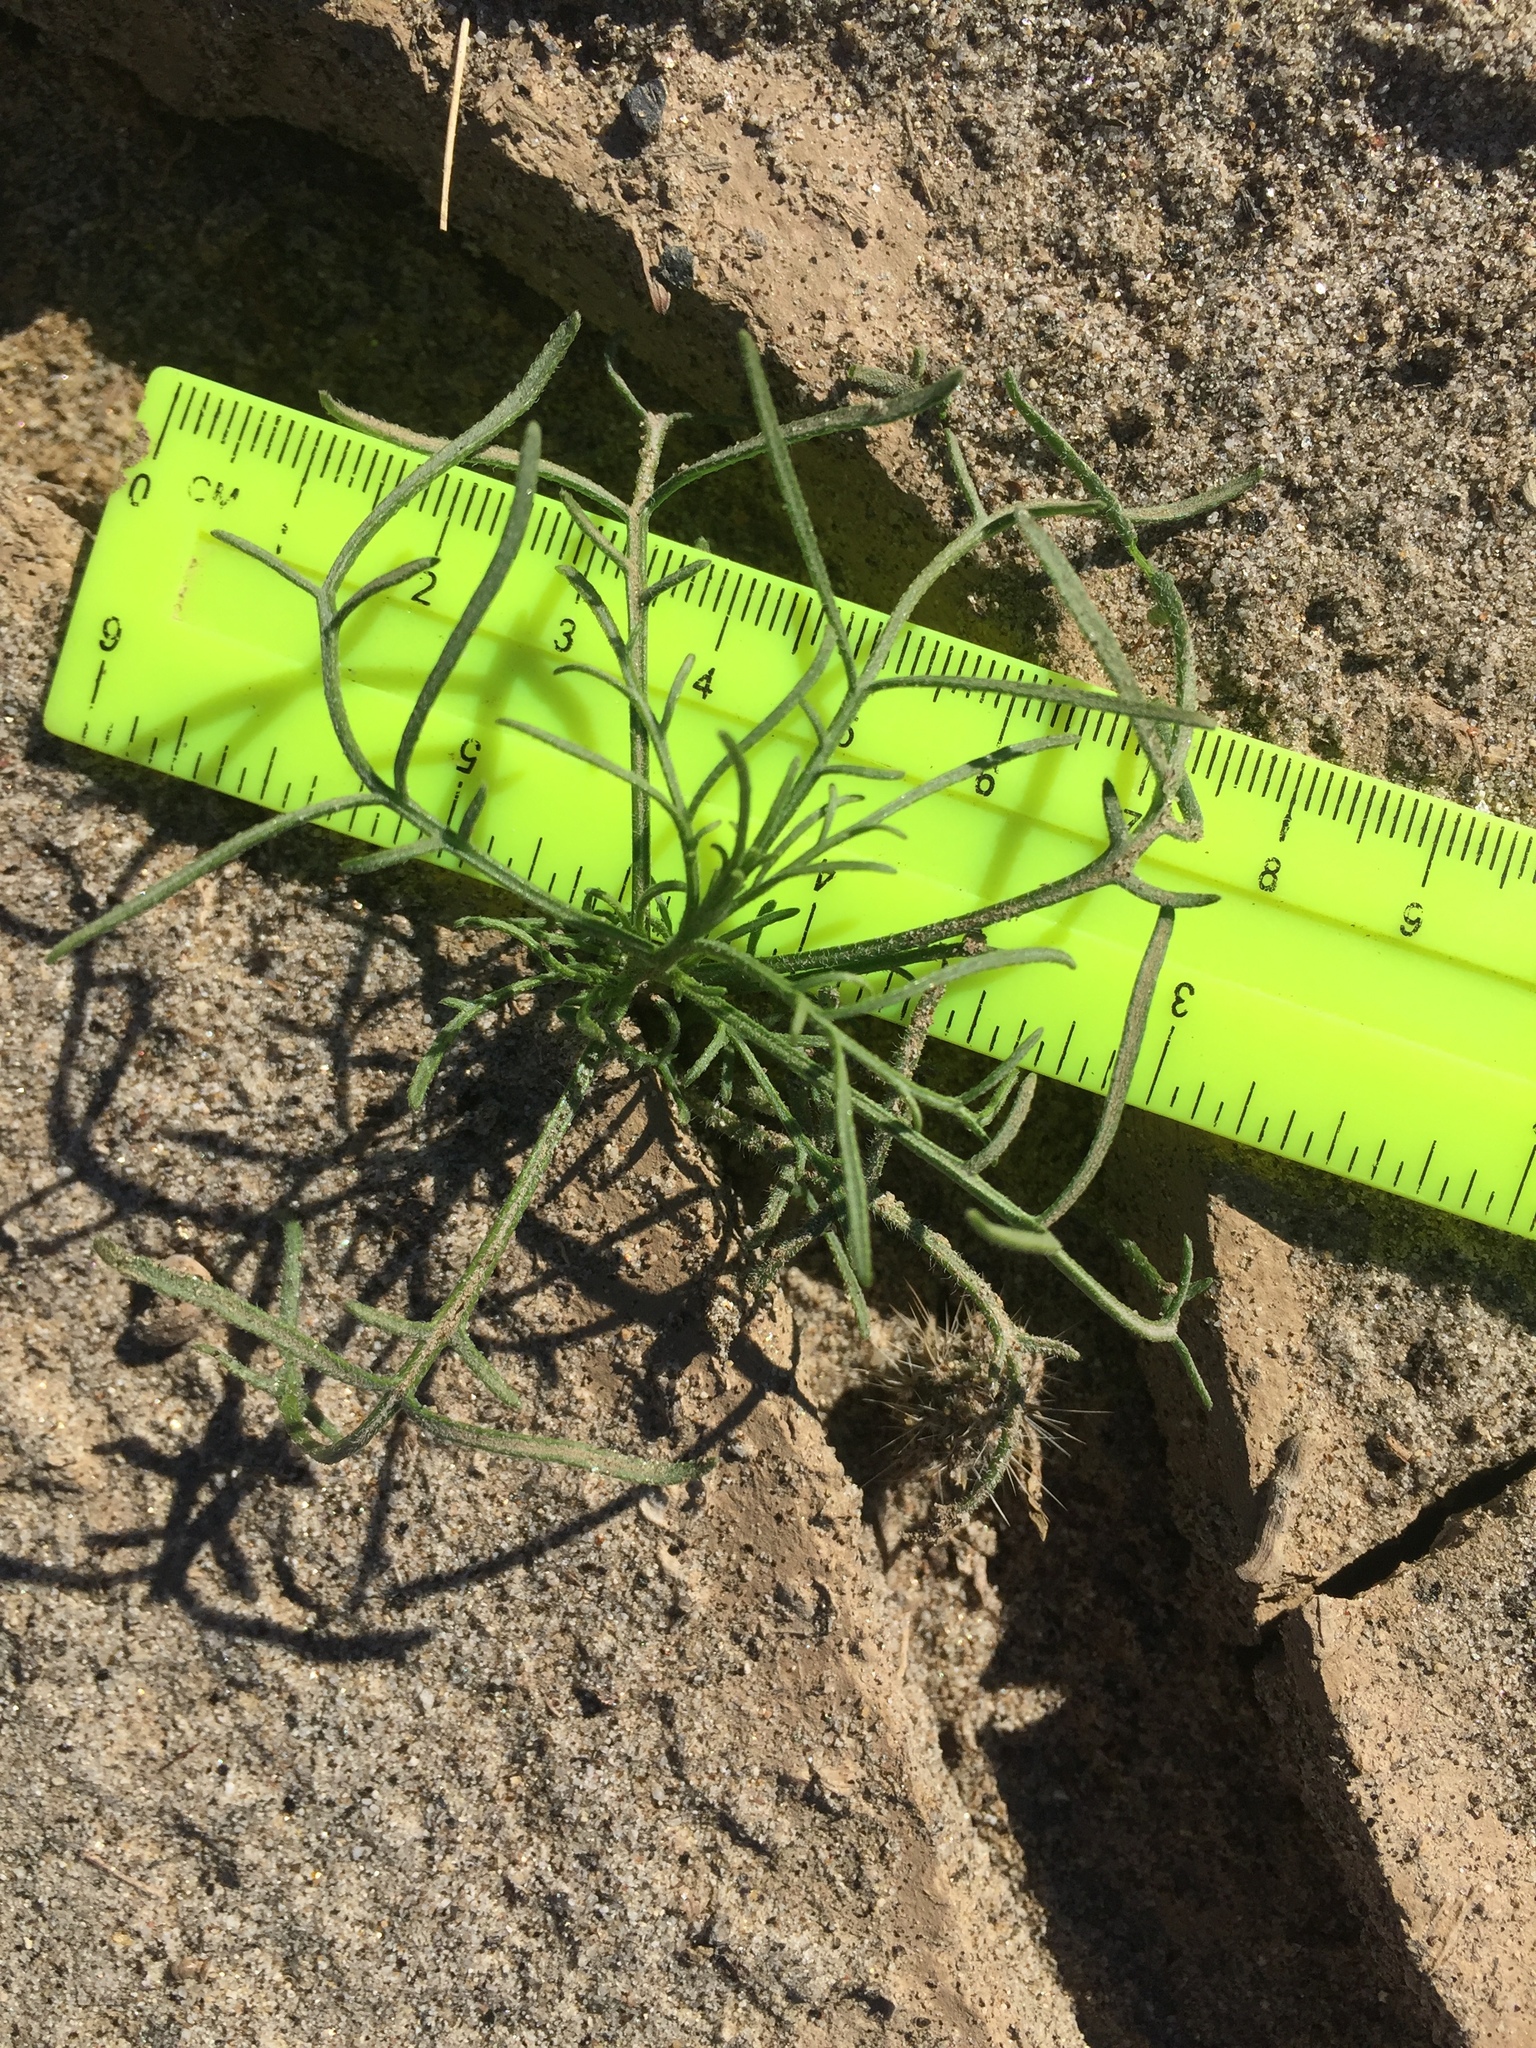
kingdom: Plantae
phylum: Tracheophyta
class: Magnoliopsida
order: Asterales
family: Asteraceae
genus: Ambrosia
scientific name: Ambrosia salsola
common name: Burrobrush
